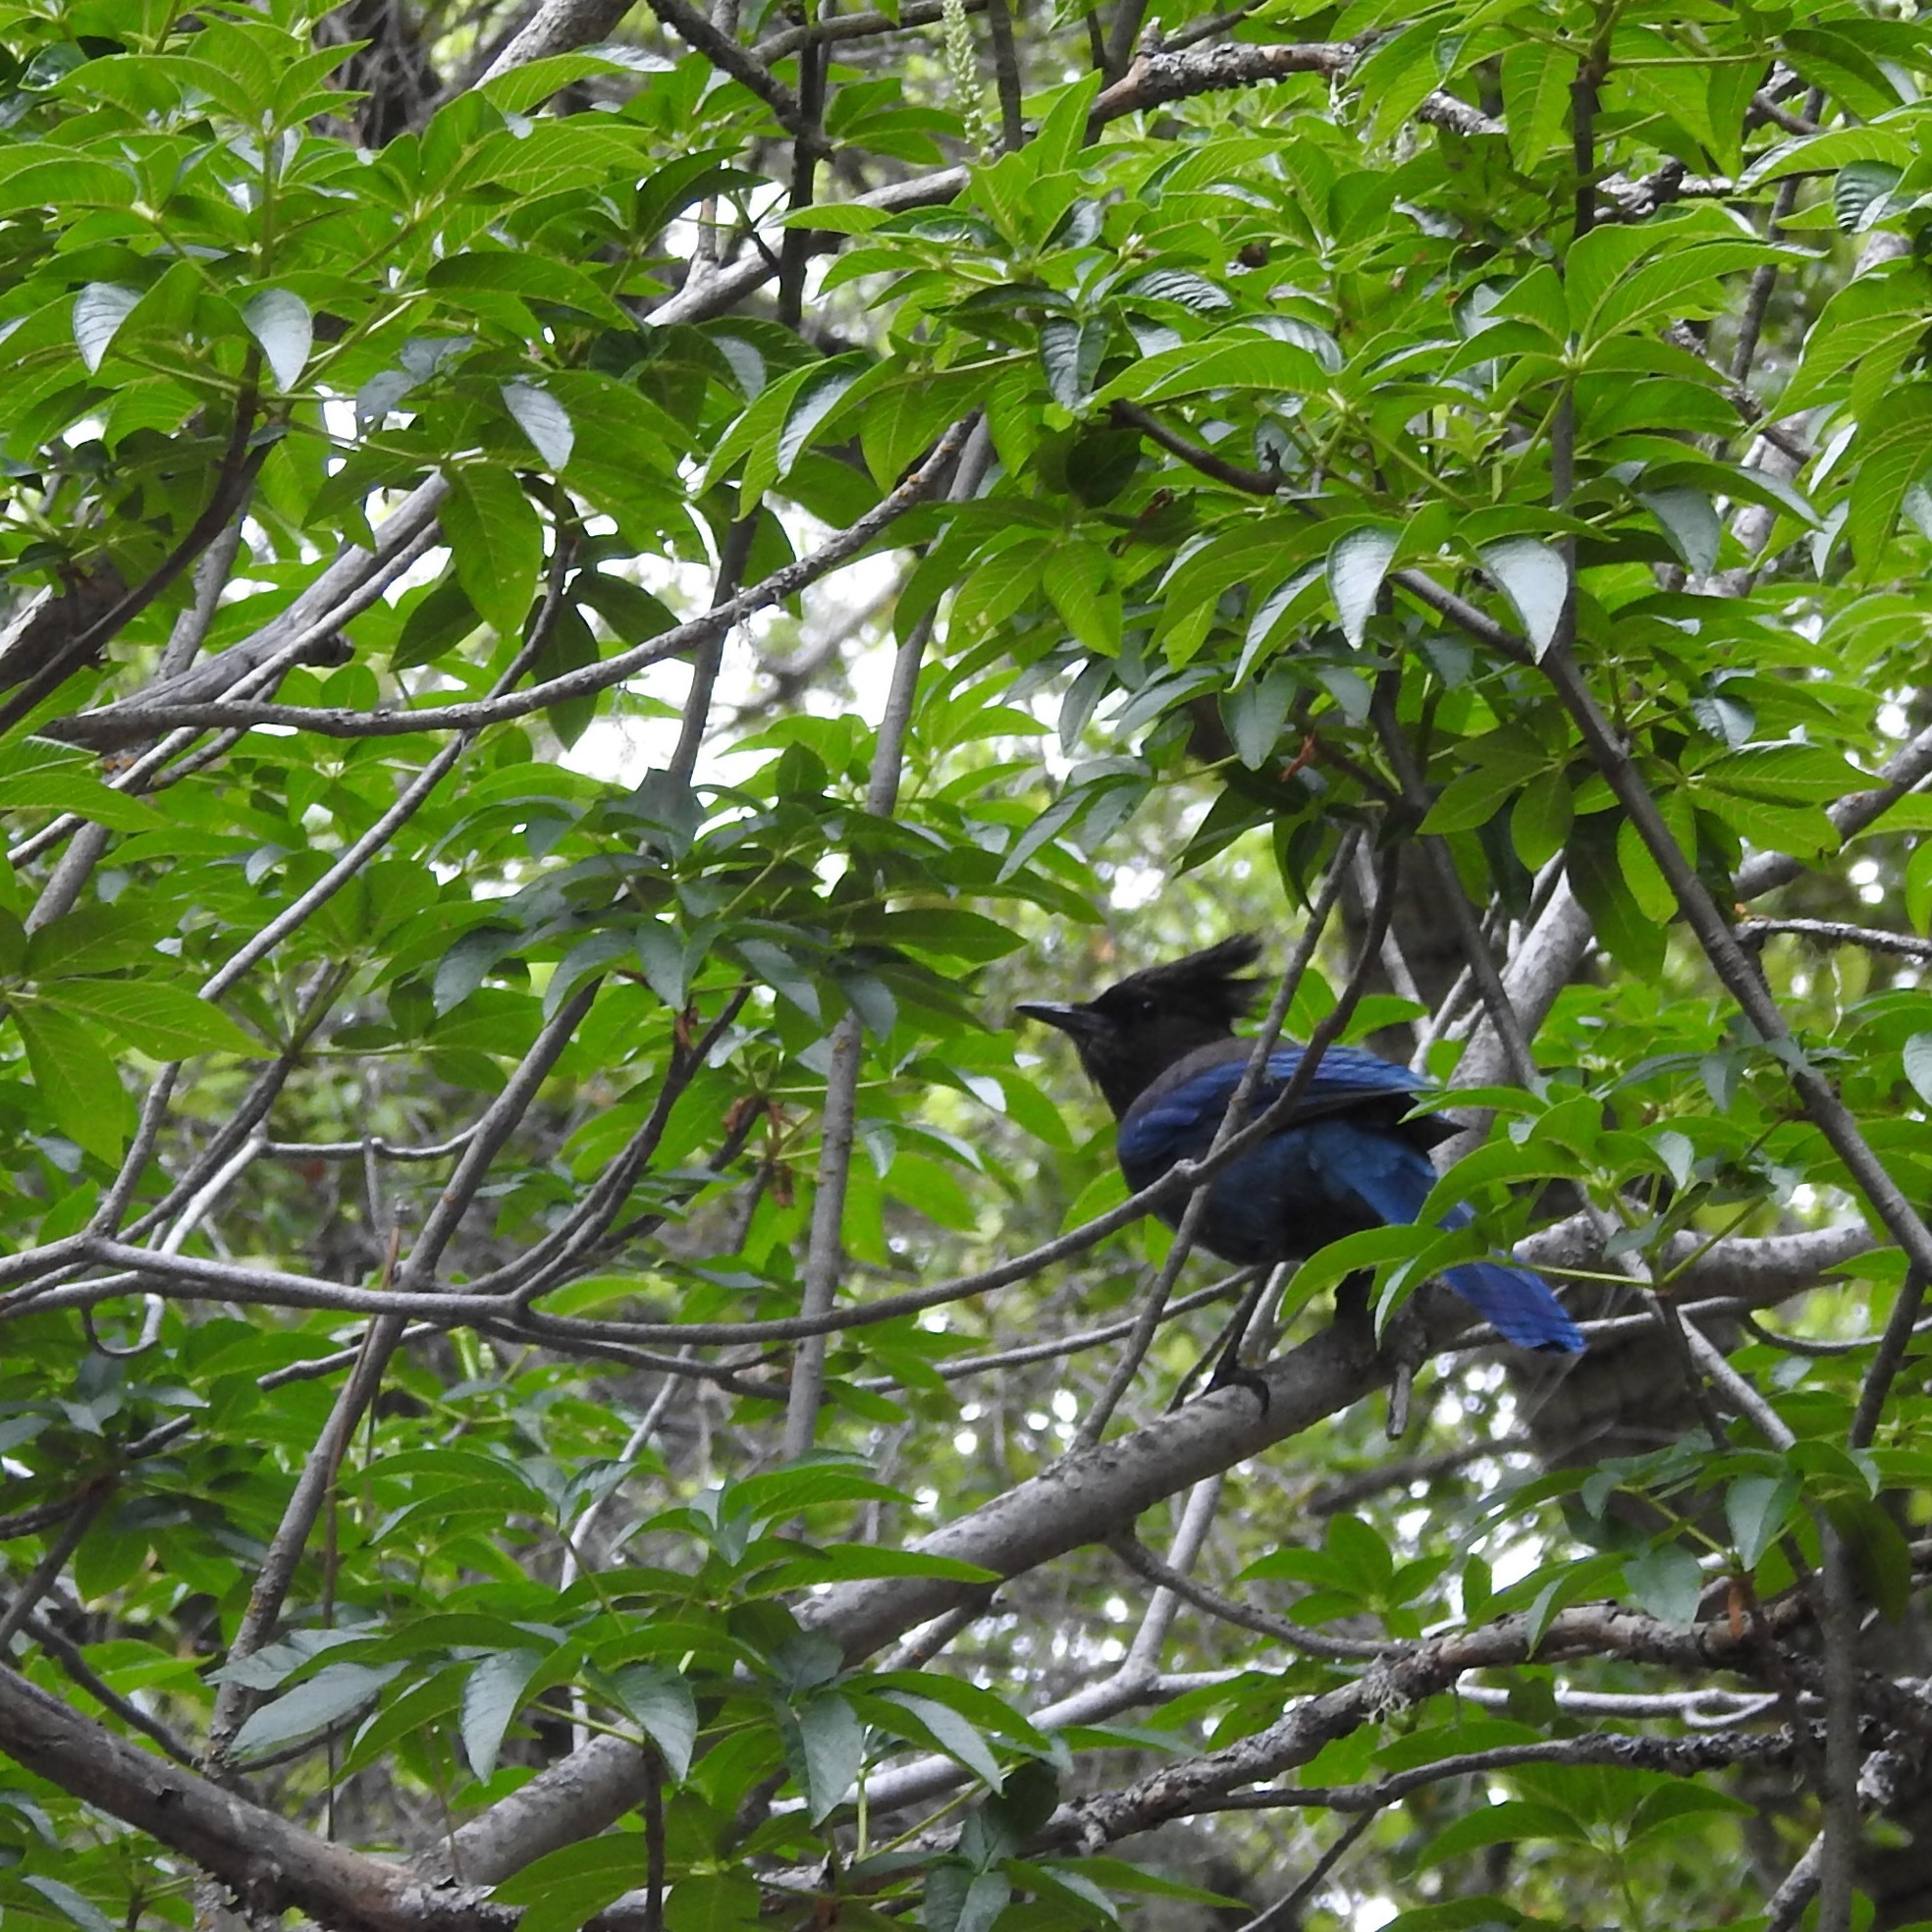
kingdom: Animalia
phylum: Chordata
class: Aves
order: Passeriformes
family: Corvidae
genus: Cyanocitta
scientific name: Cyanocitta stelleri
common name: Steller's jay
